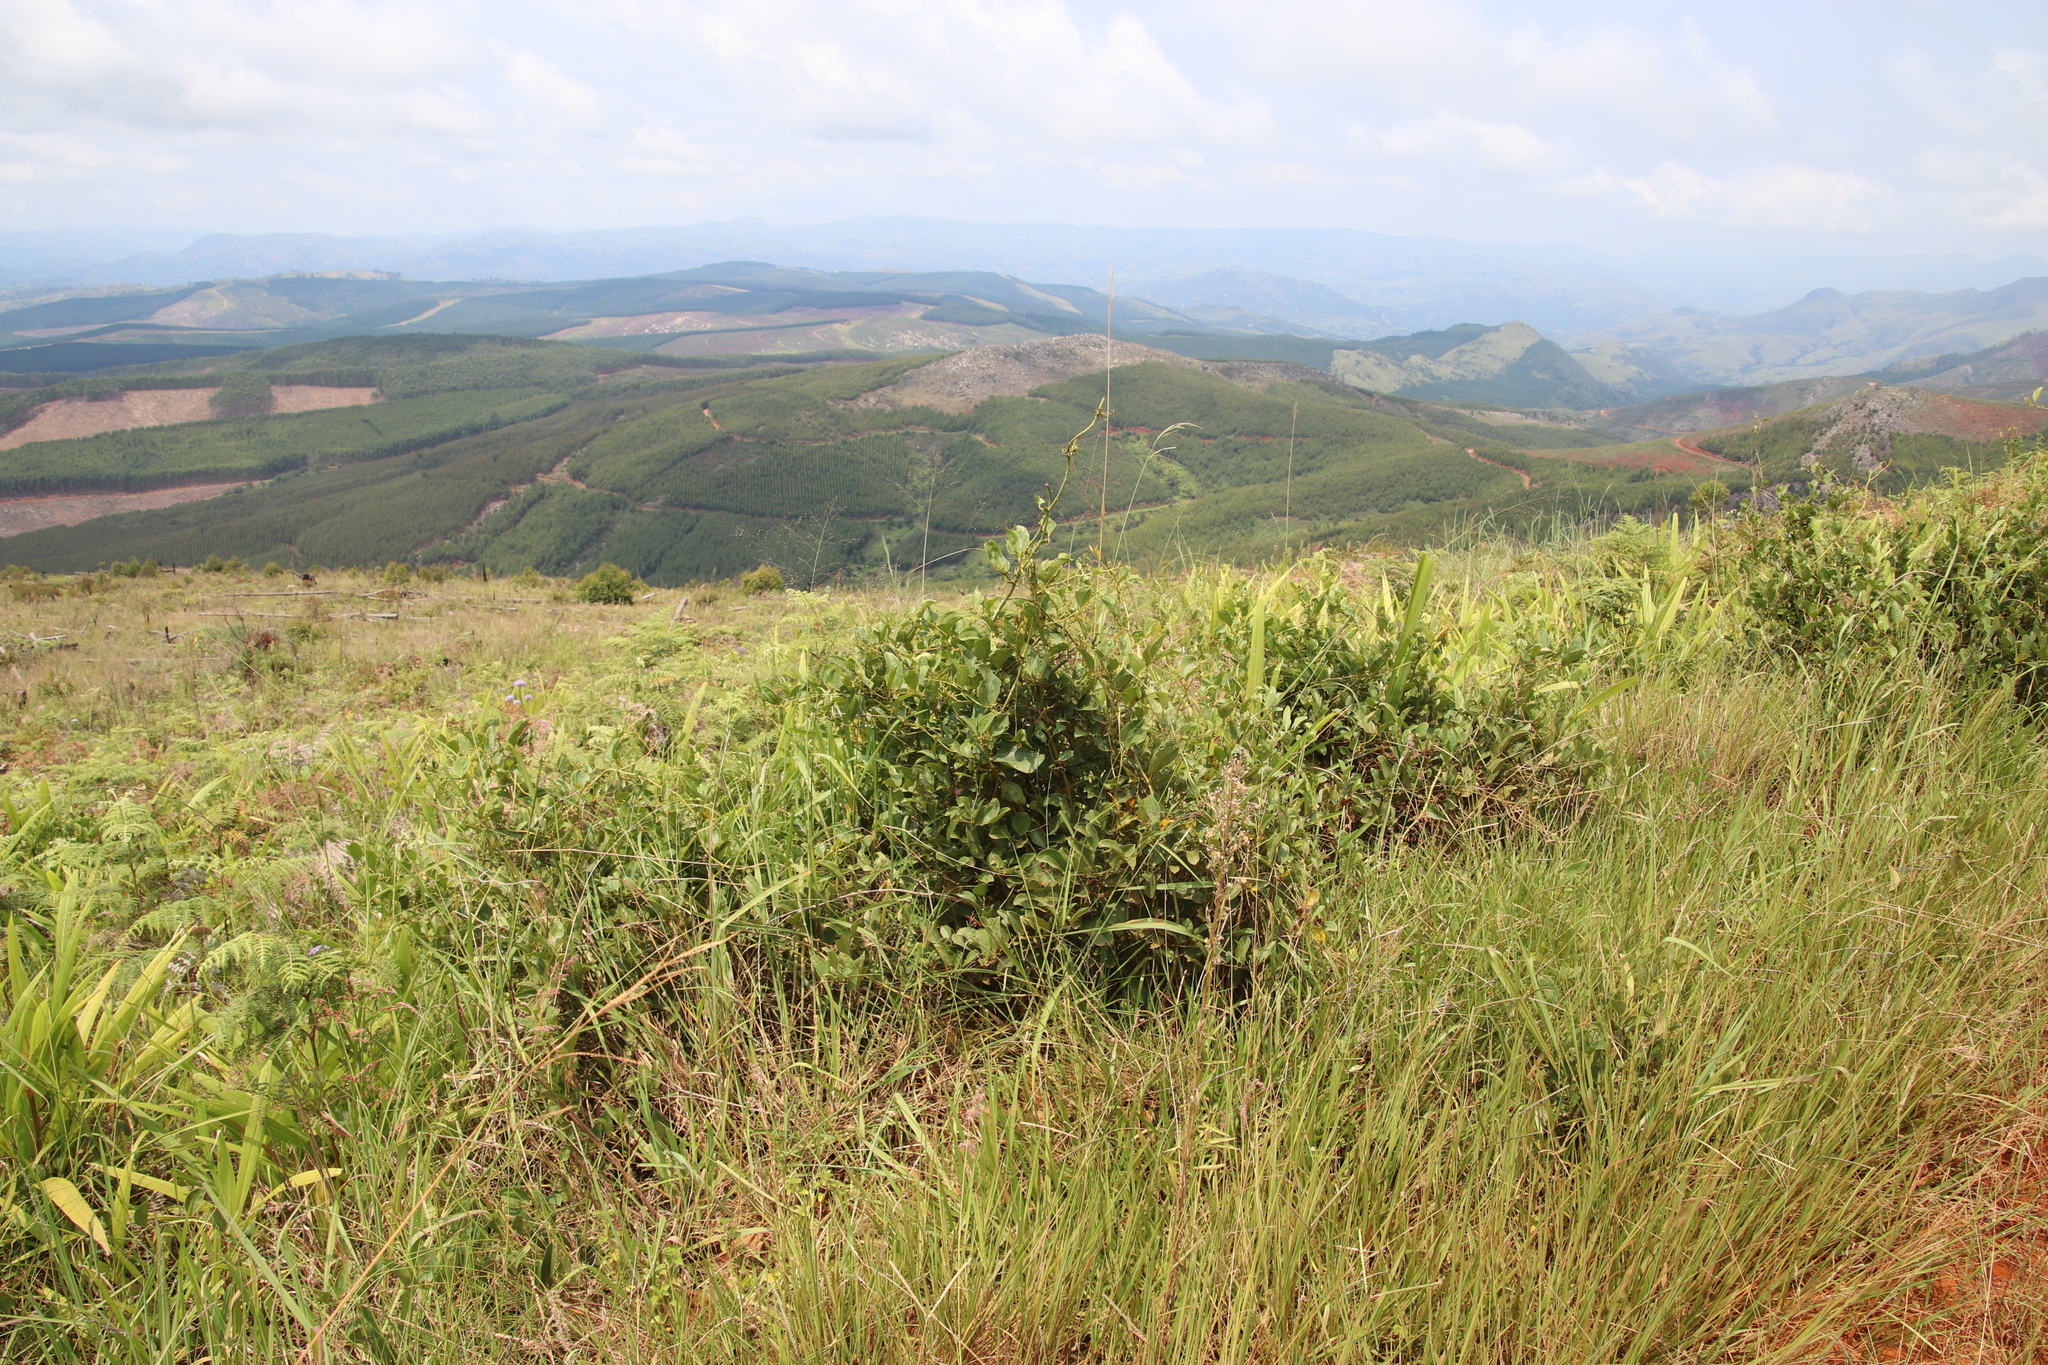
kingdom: Plantae
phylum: Tracheophyta
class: Liliopsida
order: Liliales
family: Smilacaceae
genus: Smilax
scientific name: Smilax anceps
